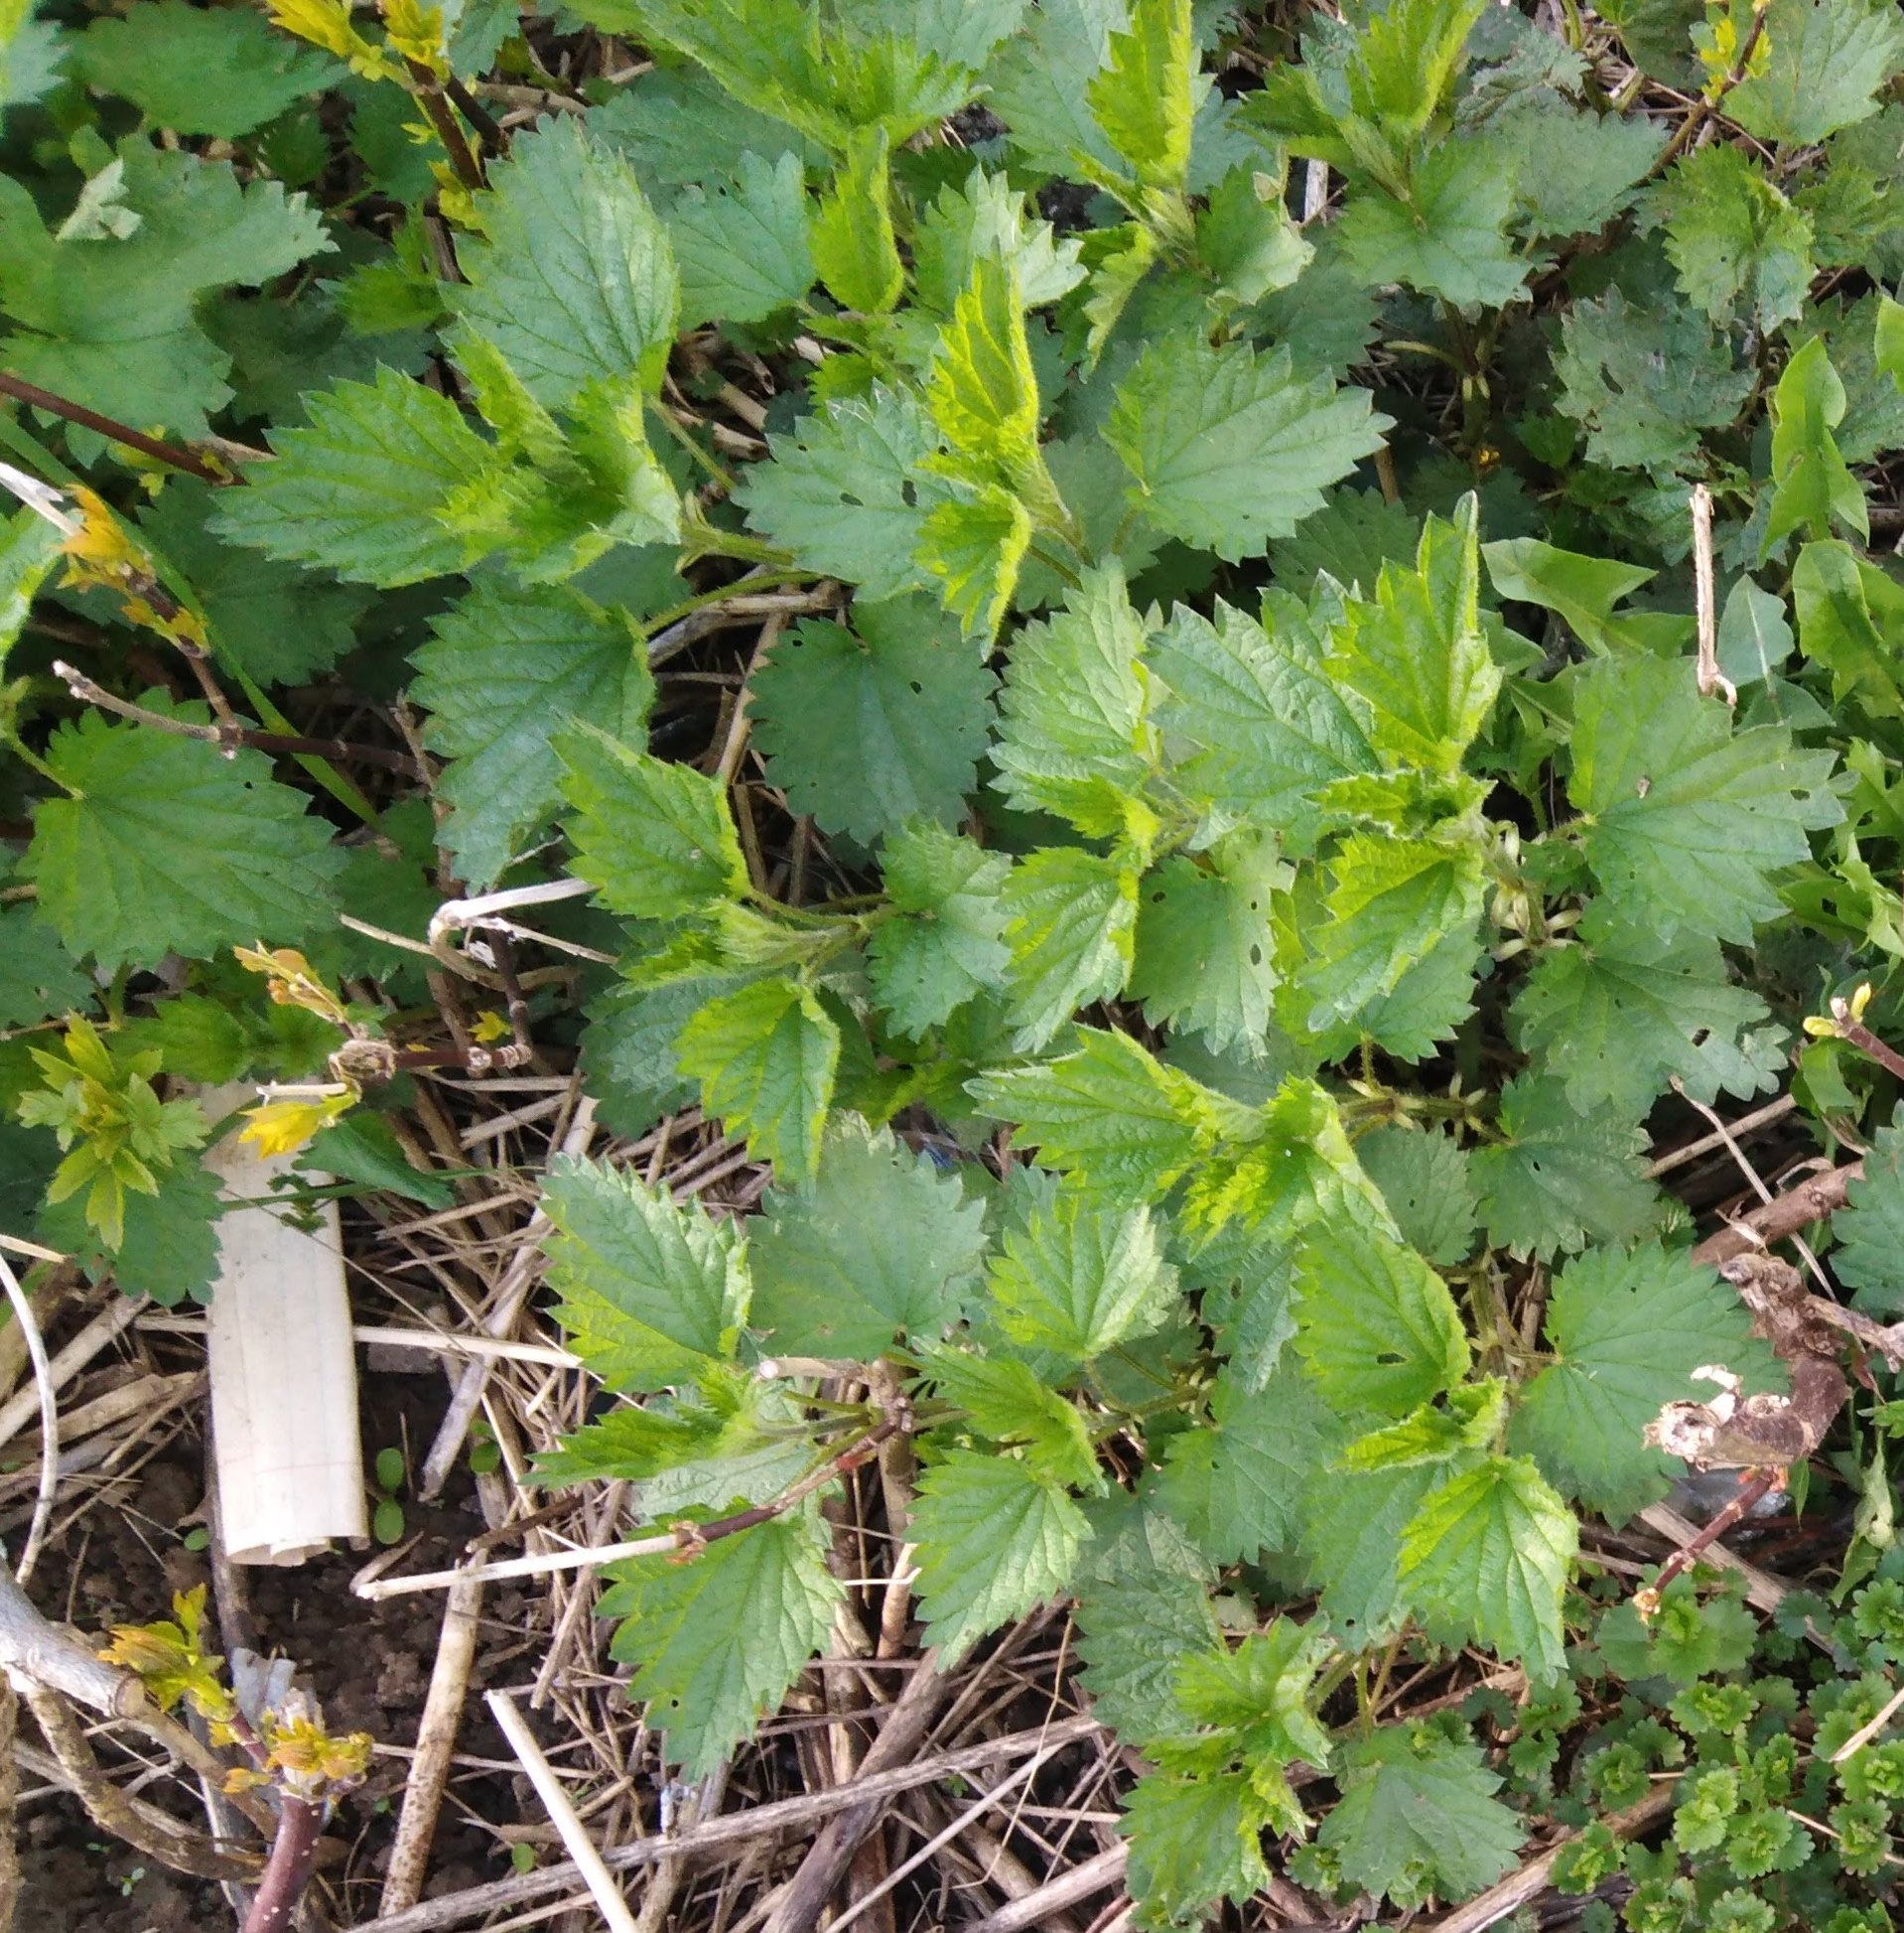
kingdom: Plantae
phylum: Tracheophyta
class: Magnoliopsida
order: Rosales
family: Urticaceae
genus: Urtica
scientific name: Urtica dioica
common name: Common nettle
